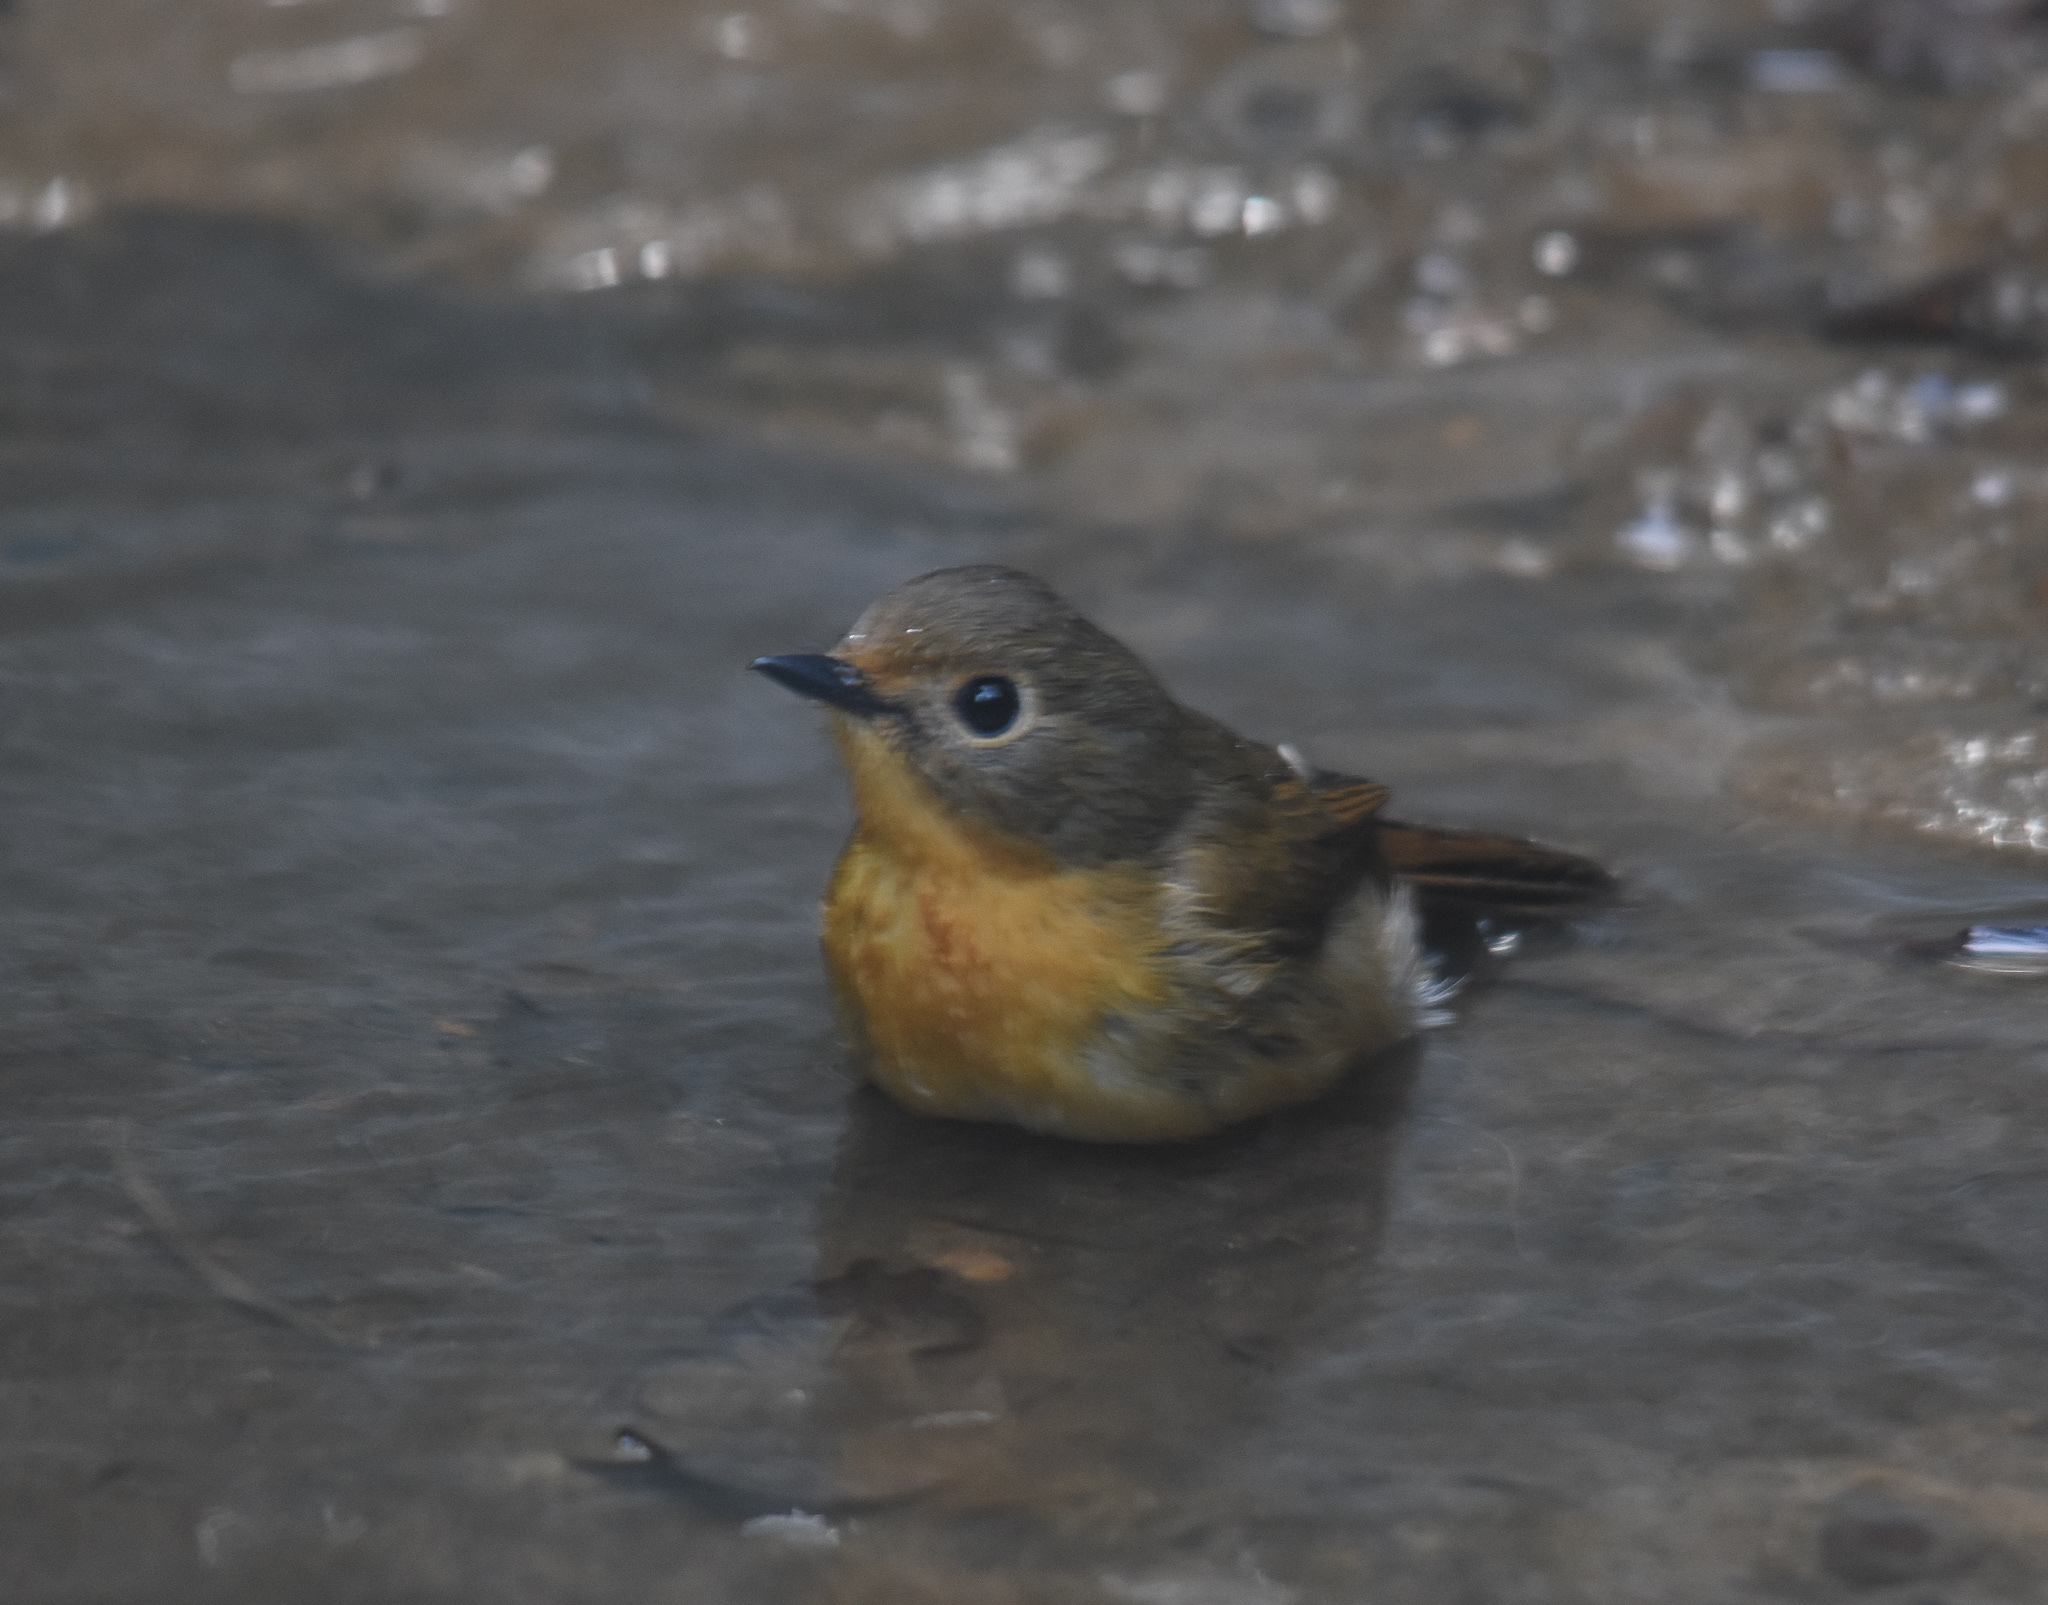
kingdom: Animalia
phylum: Chordata
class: Aves
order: Passeriformes
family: Muscicapidae
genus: Cyornis
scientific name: Cyornis whitei
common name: Hill blue flycatcher
